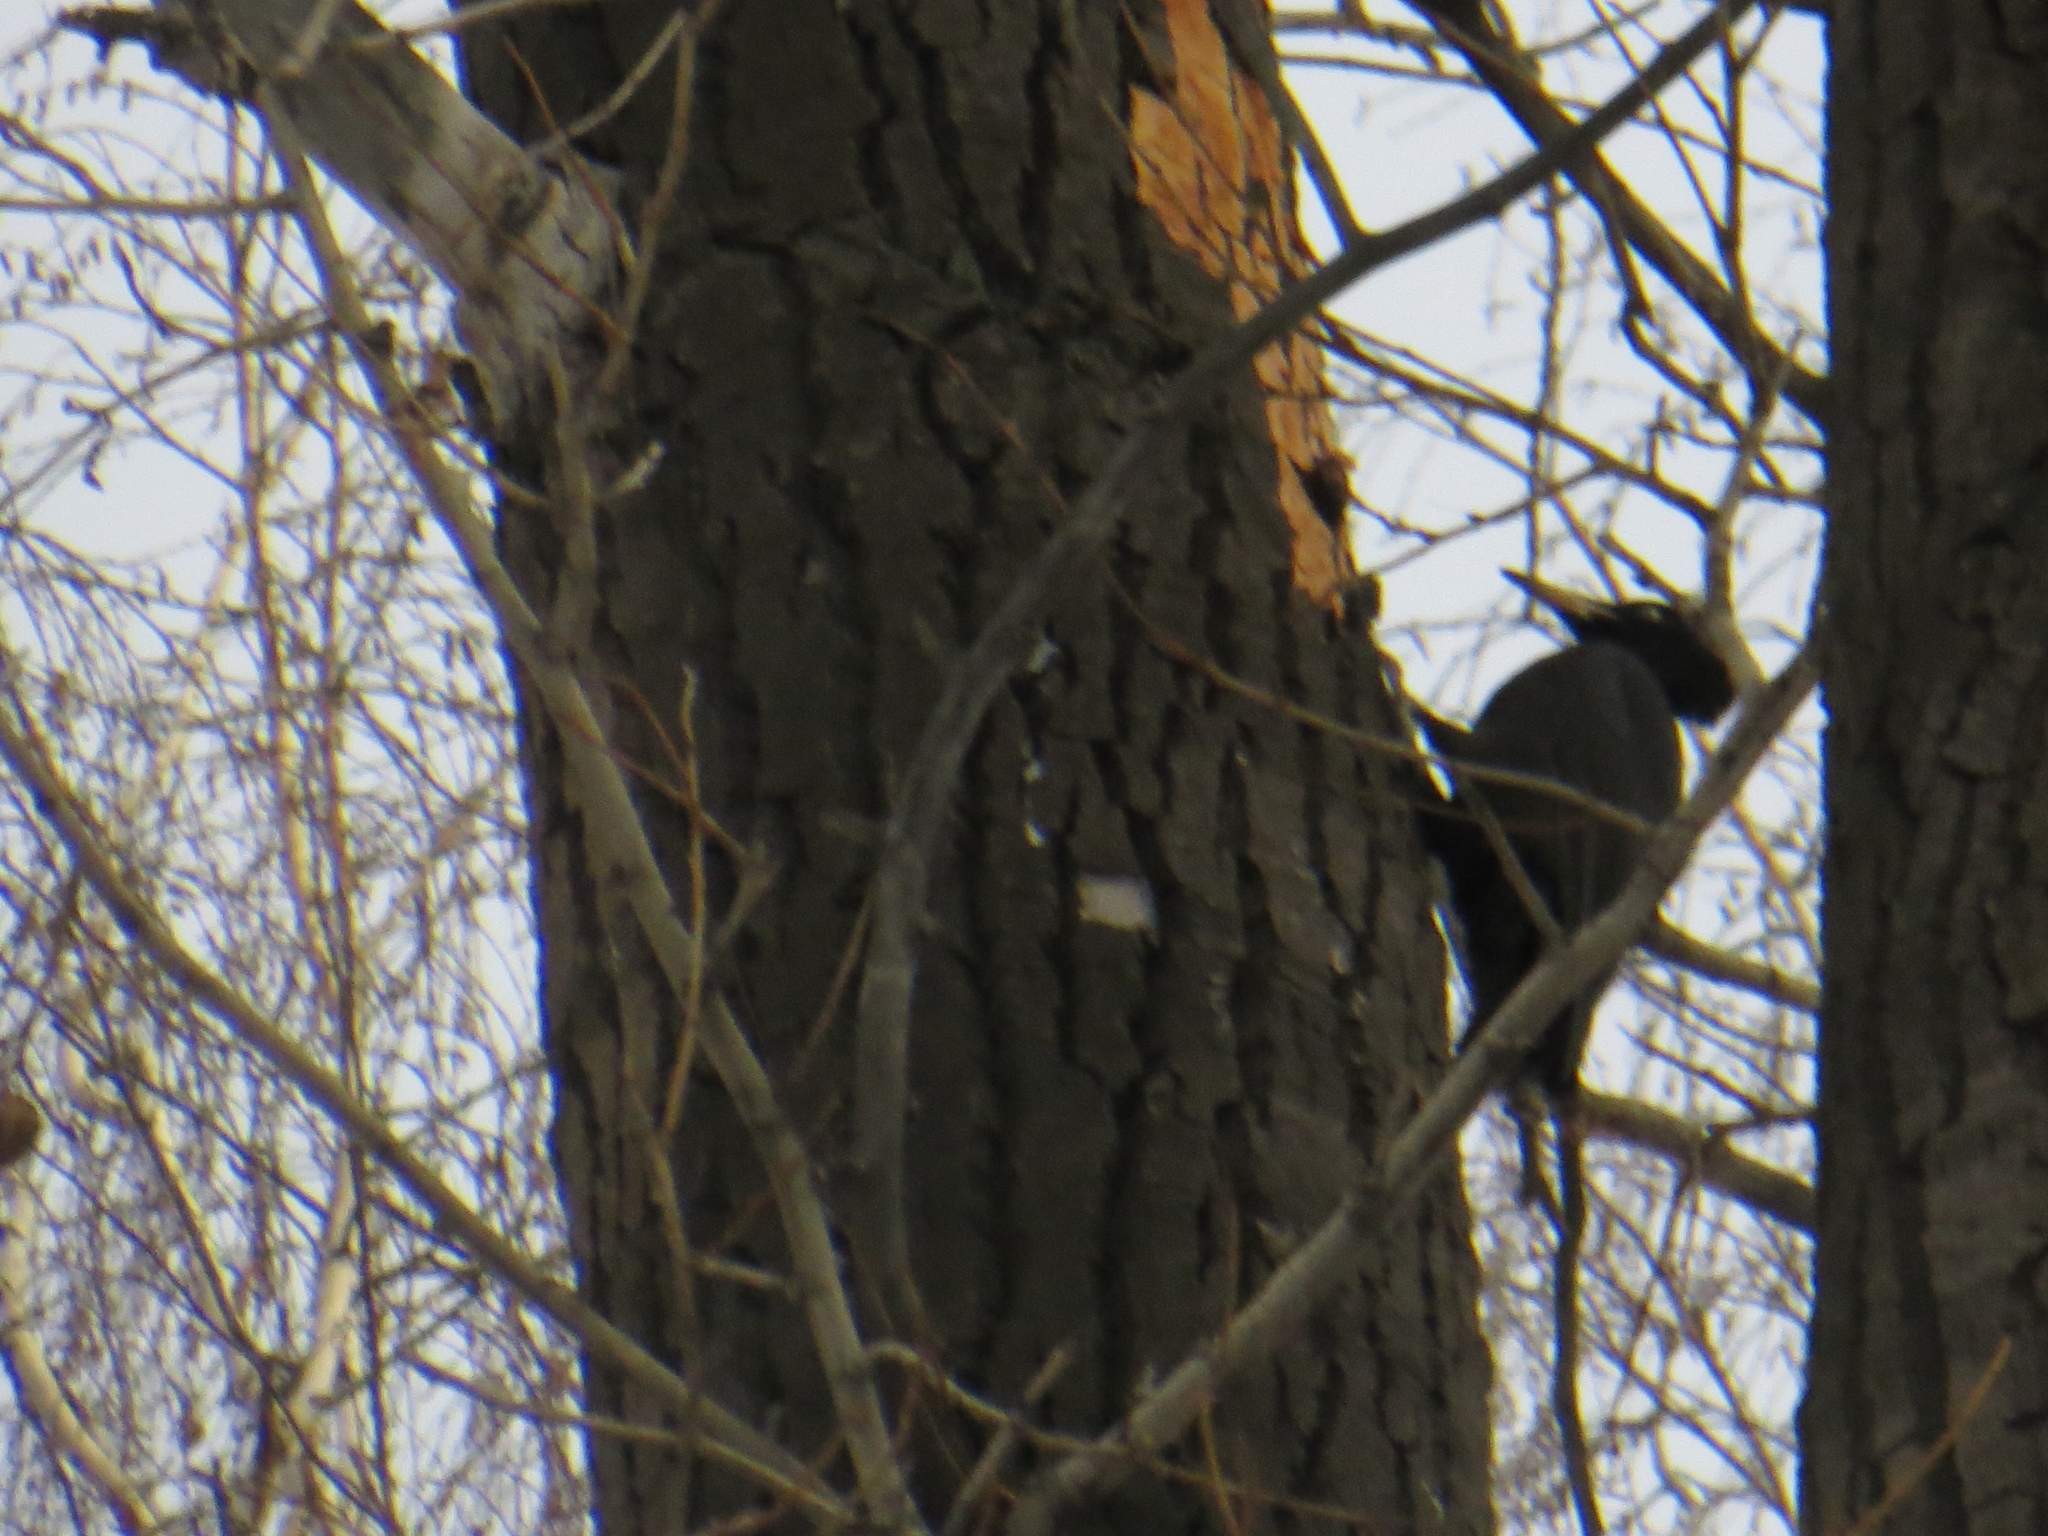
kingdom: Animalia
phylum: Chordata
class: Aves
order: Piciformes
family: Picidae
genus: Dryocopus
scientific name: Dryocopus martius
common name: Black woodpecker
